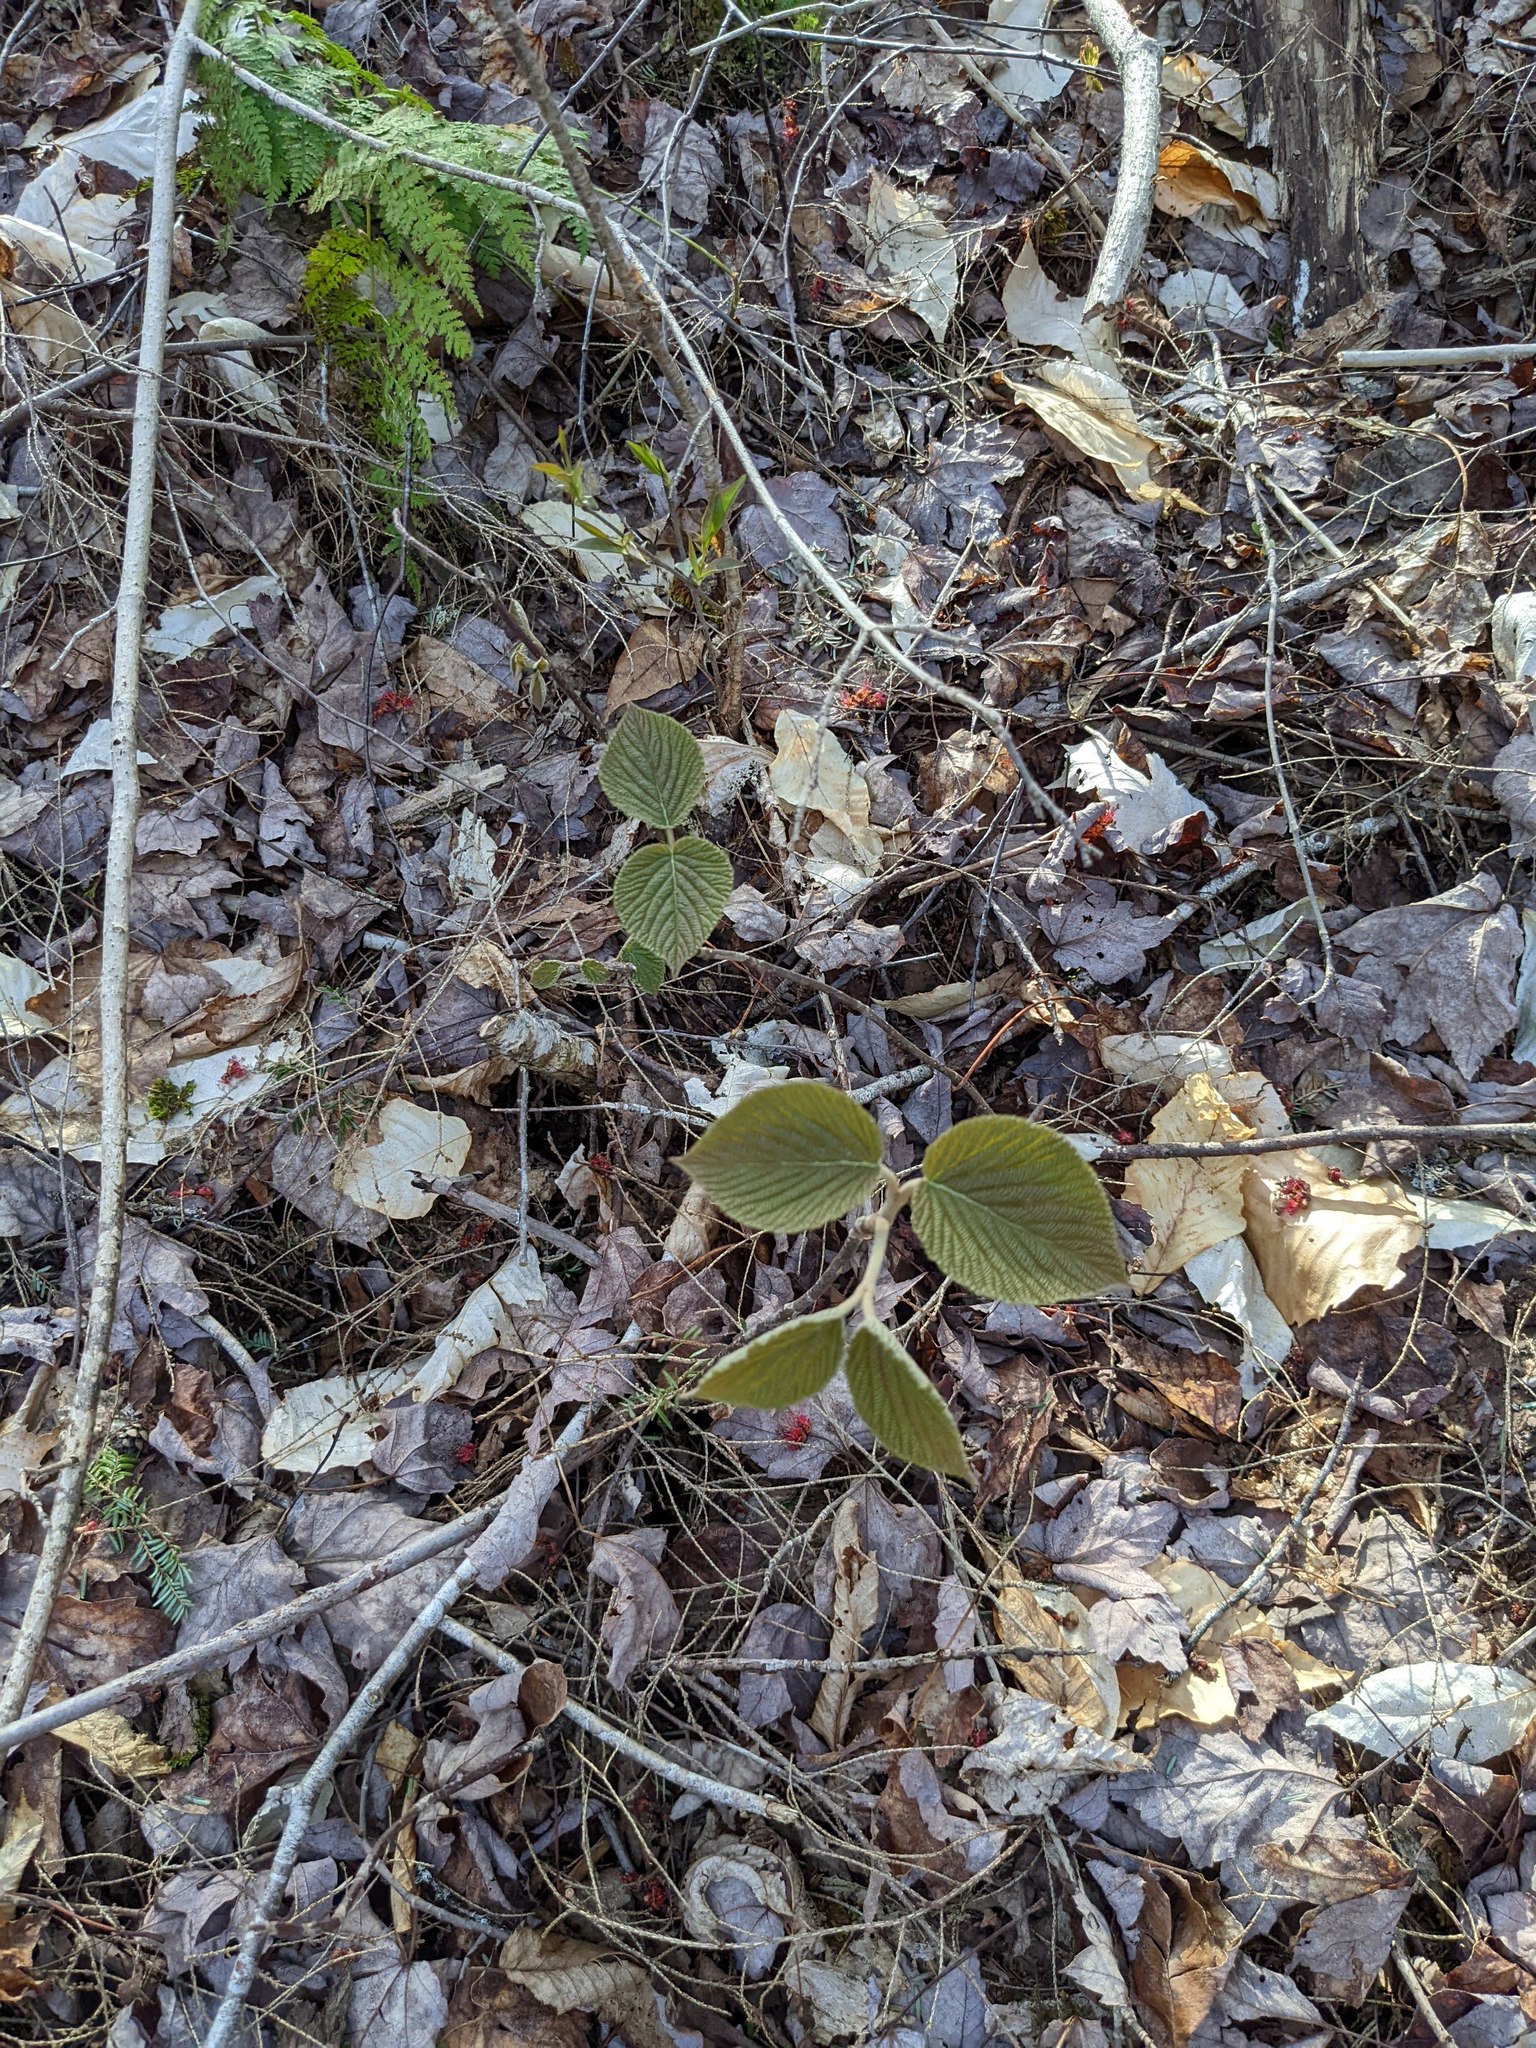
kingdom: Plantae
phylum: Tracheophyta
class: Magnoliopsida
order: Dipsacales
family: Viburnaceae
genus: Viburnum
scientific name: Viburnum lantanoides
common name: Hobblebush
